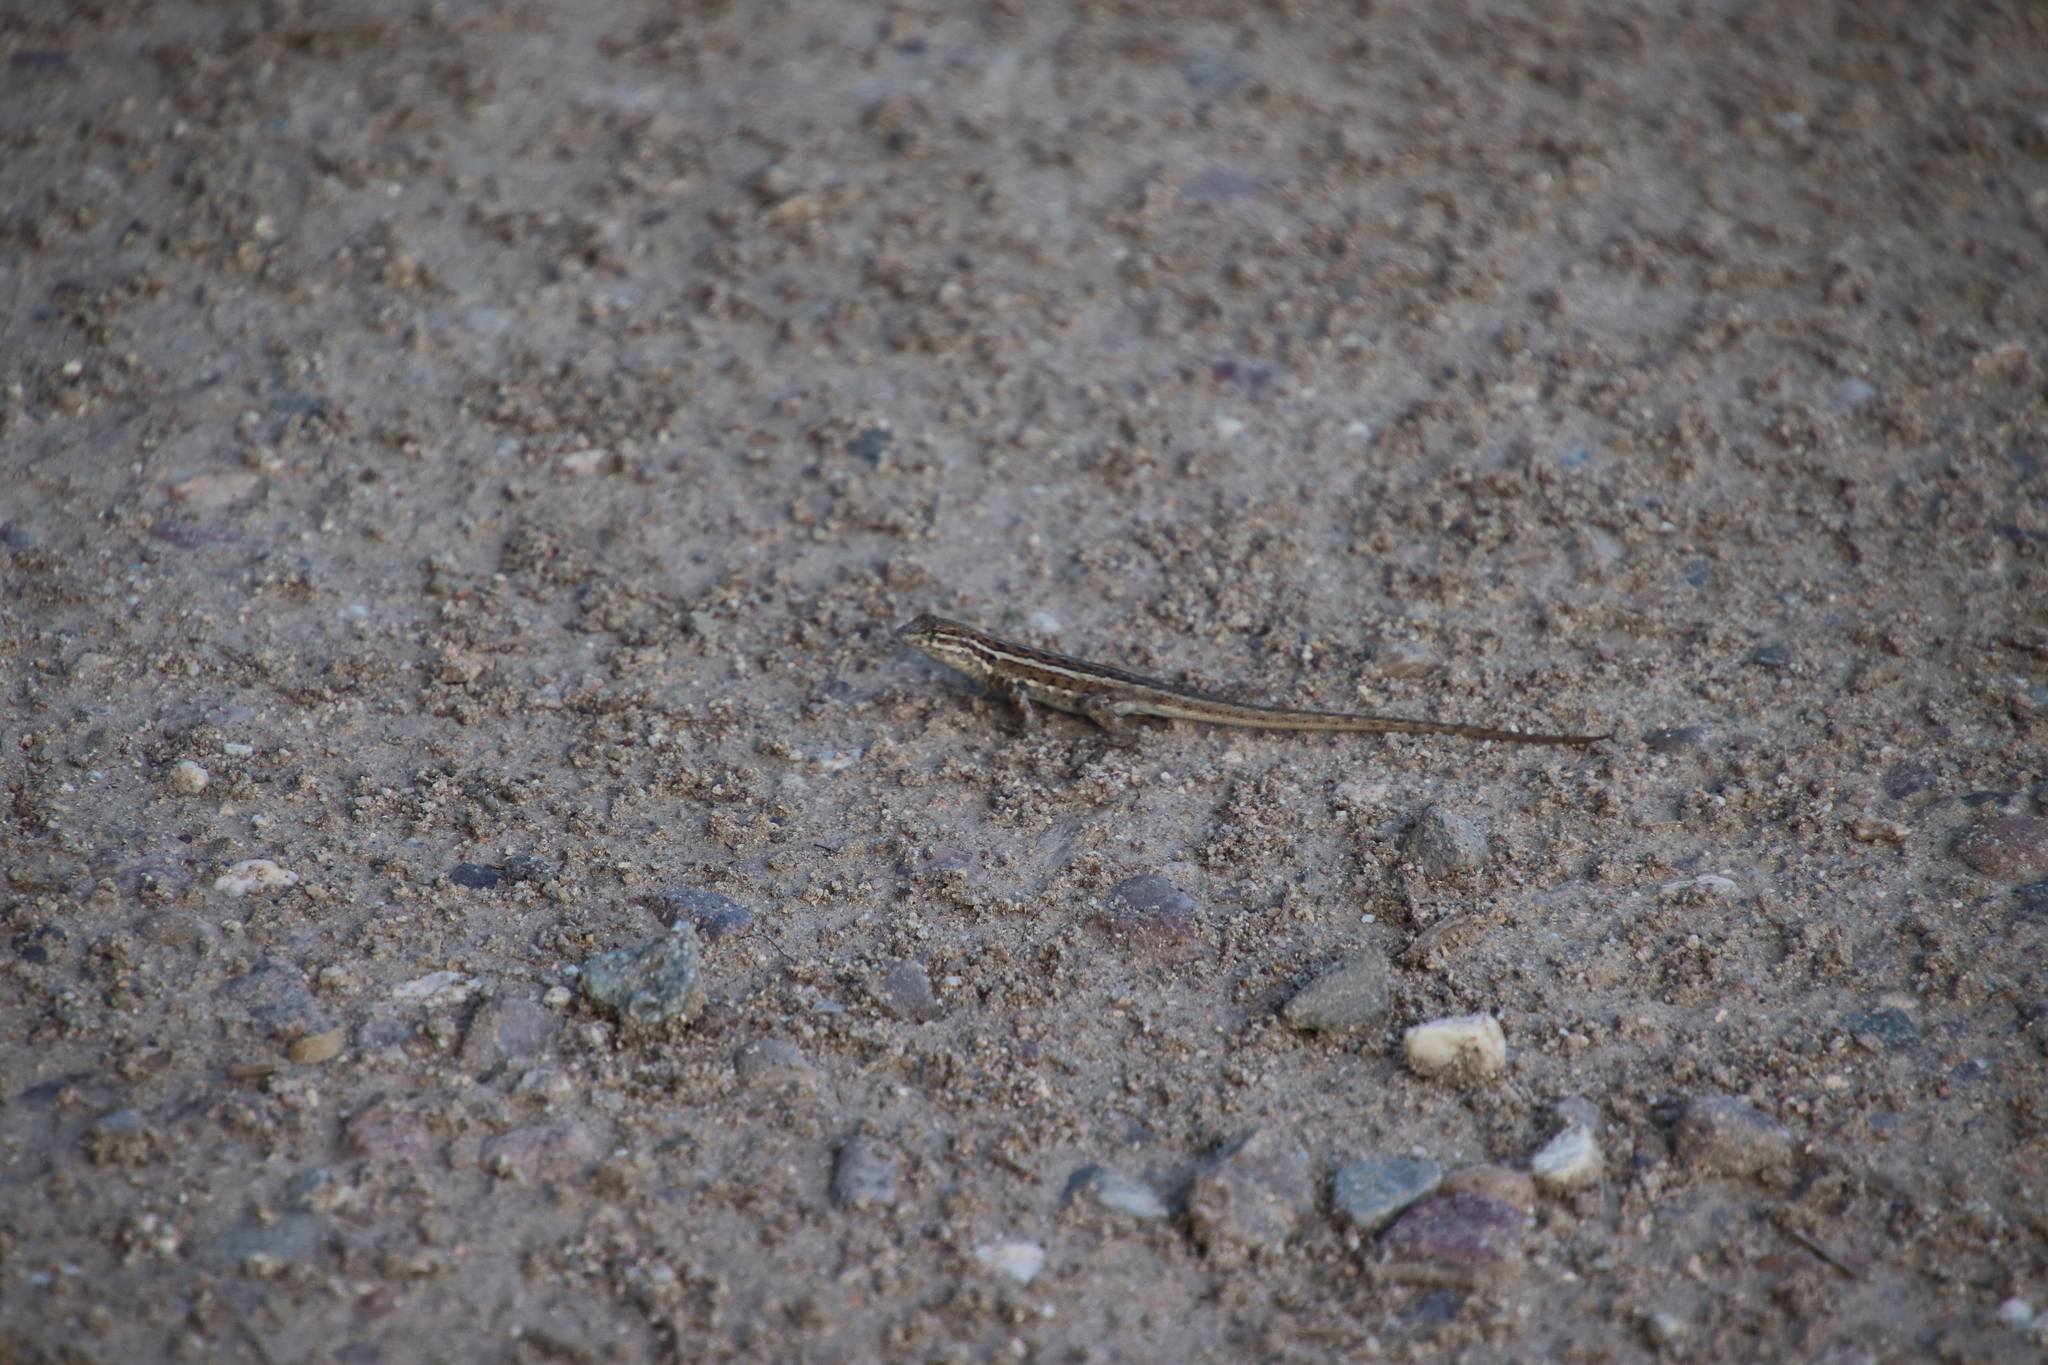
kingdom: Animalia
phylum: Chordata
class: Squamata
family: Phrynosomatidae
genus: Uta
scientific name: Uta stansburiana
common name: Side-blotched lizard
